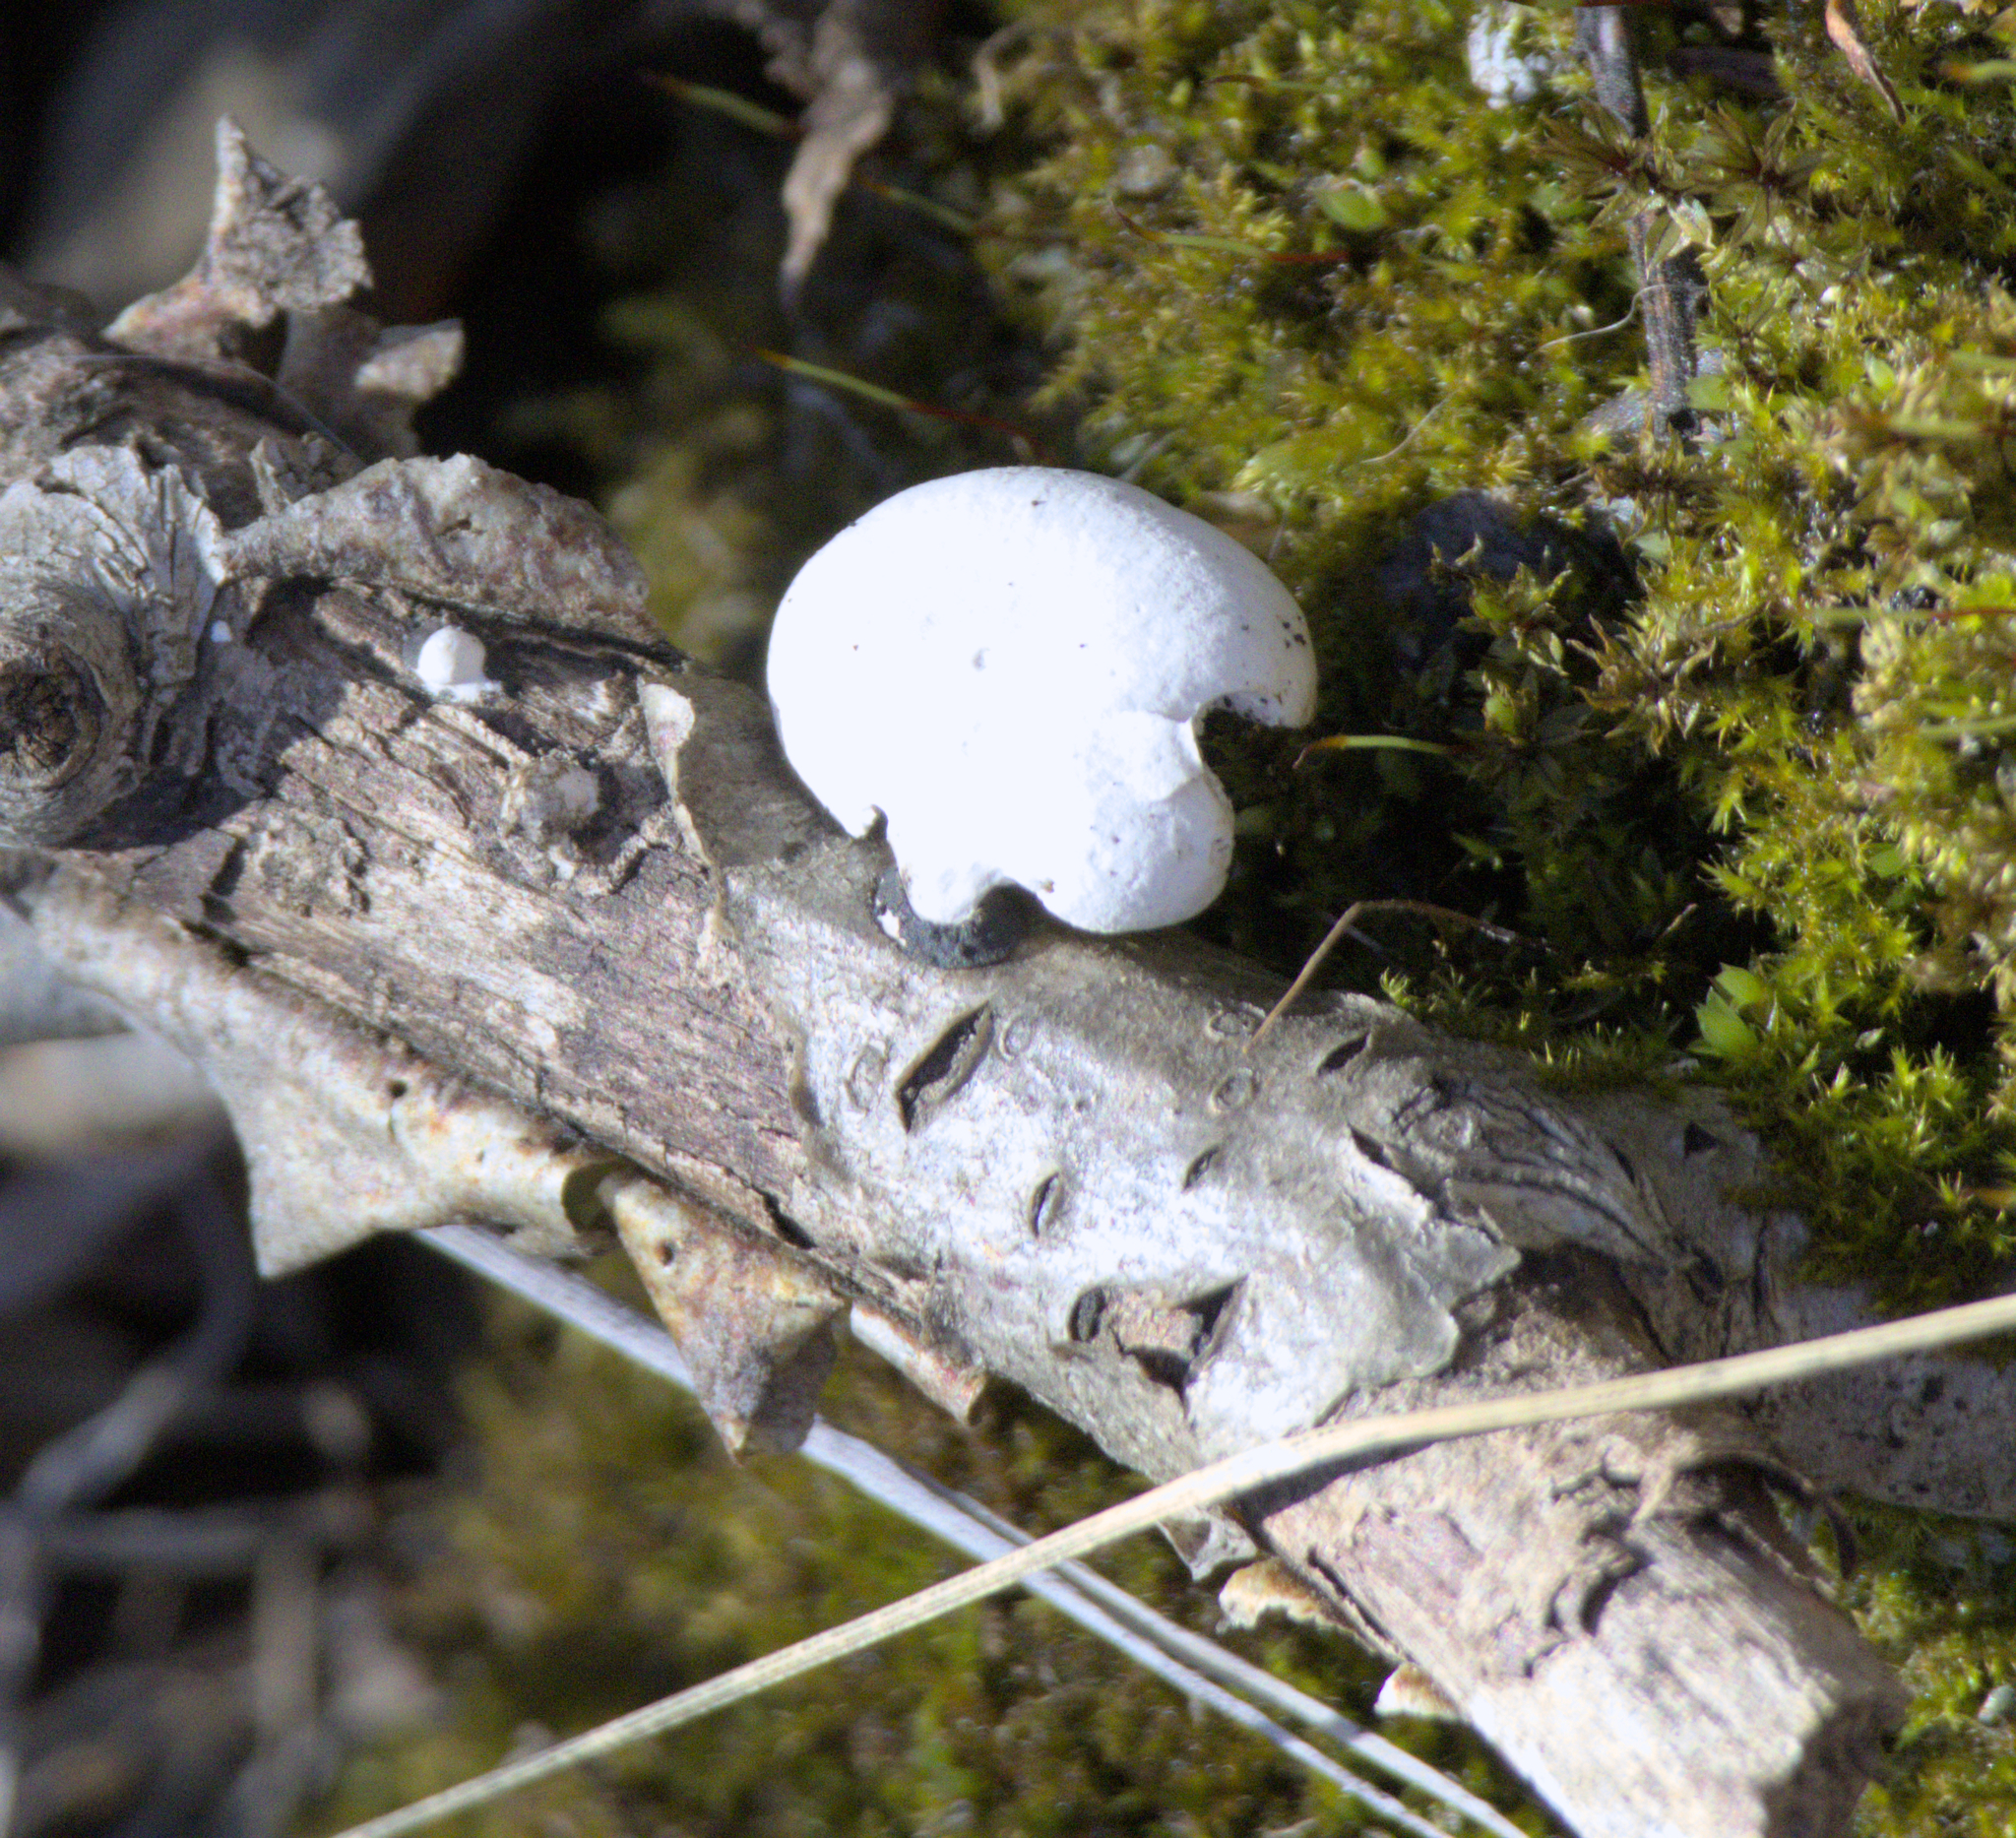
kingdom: Fungi
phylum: Basidiomycota
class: Agaricomycetes
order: Polyporales
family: Incrustoporiaceae
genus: Tyromyces
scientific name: Tyromyces chioneus
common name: White cheese polypore
